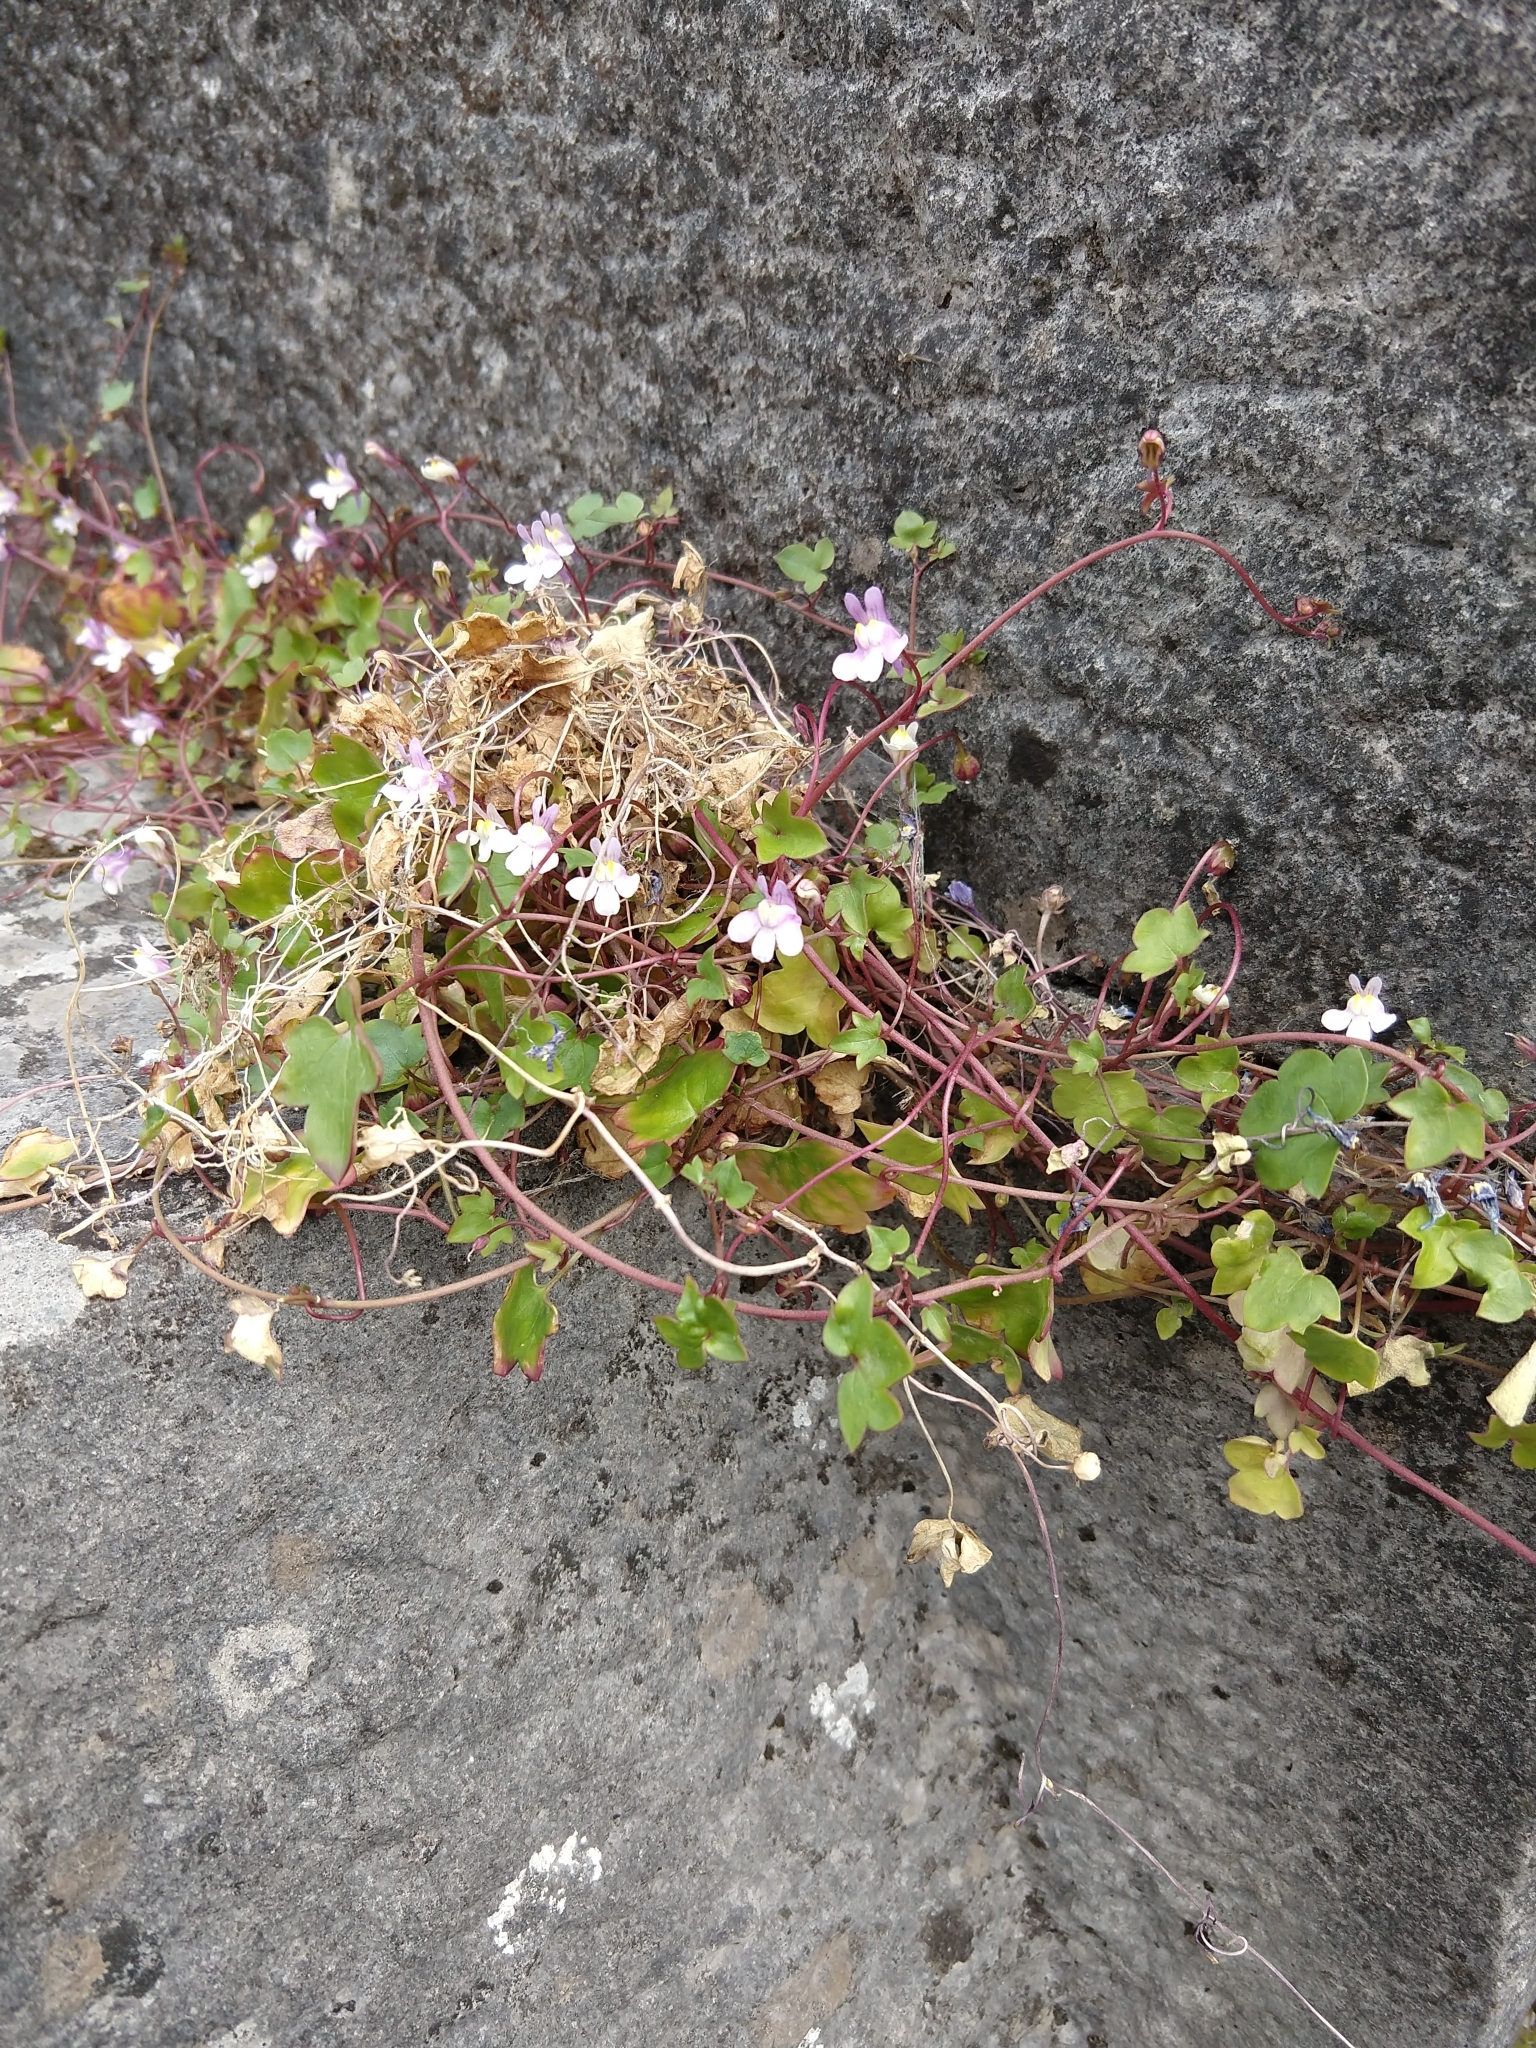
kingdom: Plantae
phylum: Tracheophyta
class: Magnoliopsida
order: Lamiales
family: Plantaginaceae
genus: Cymbalaria
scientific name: Cymbalaria muralis
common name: Ivy-leaved toadflax
